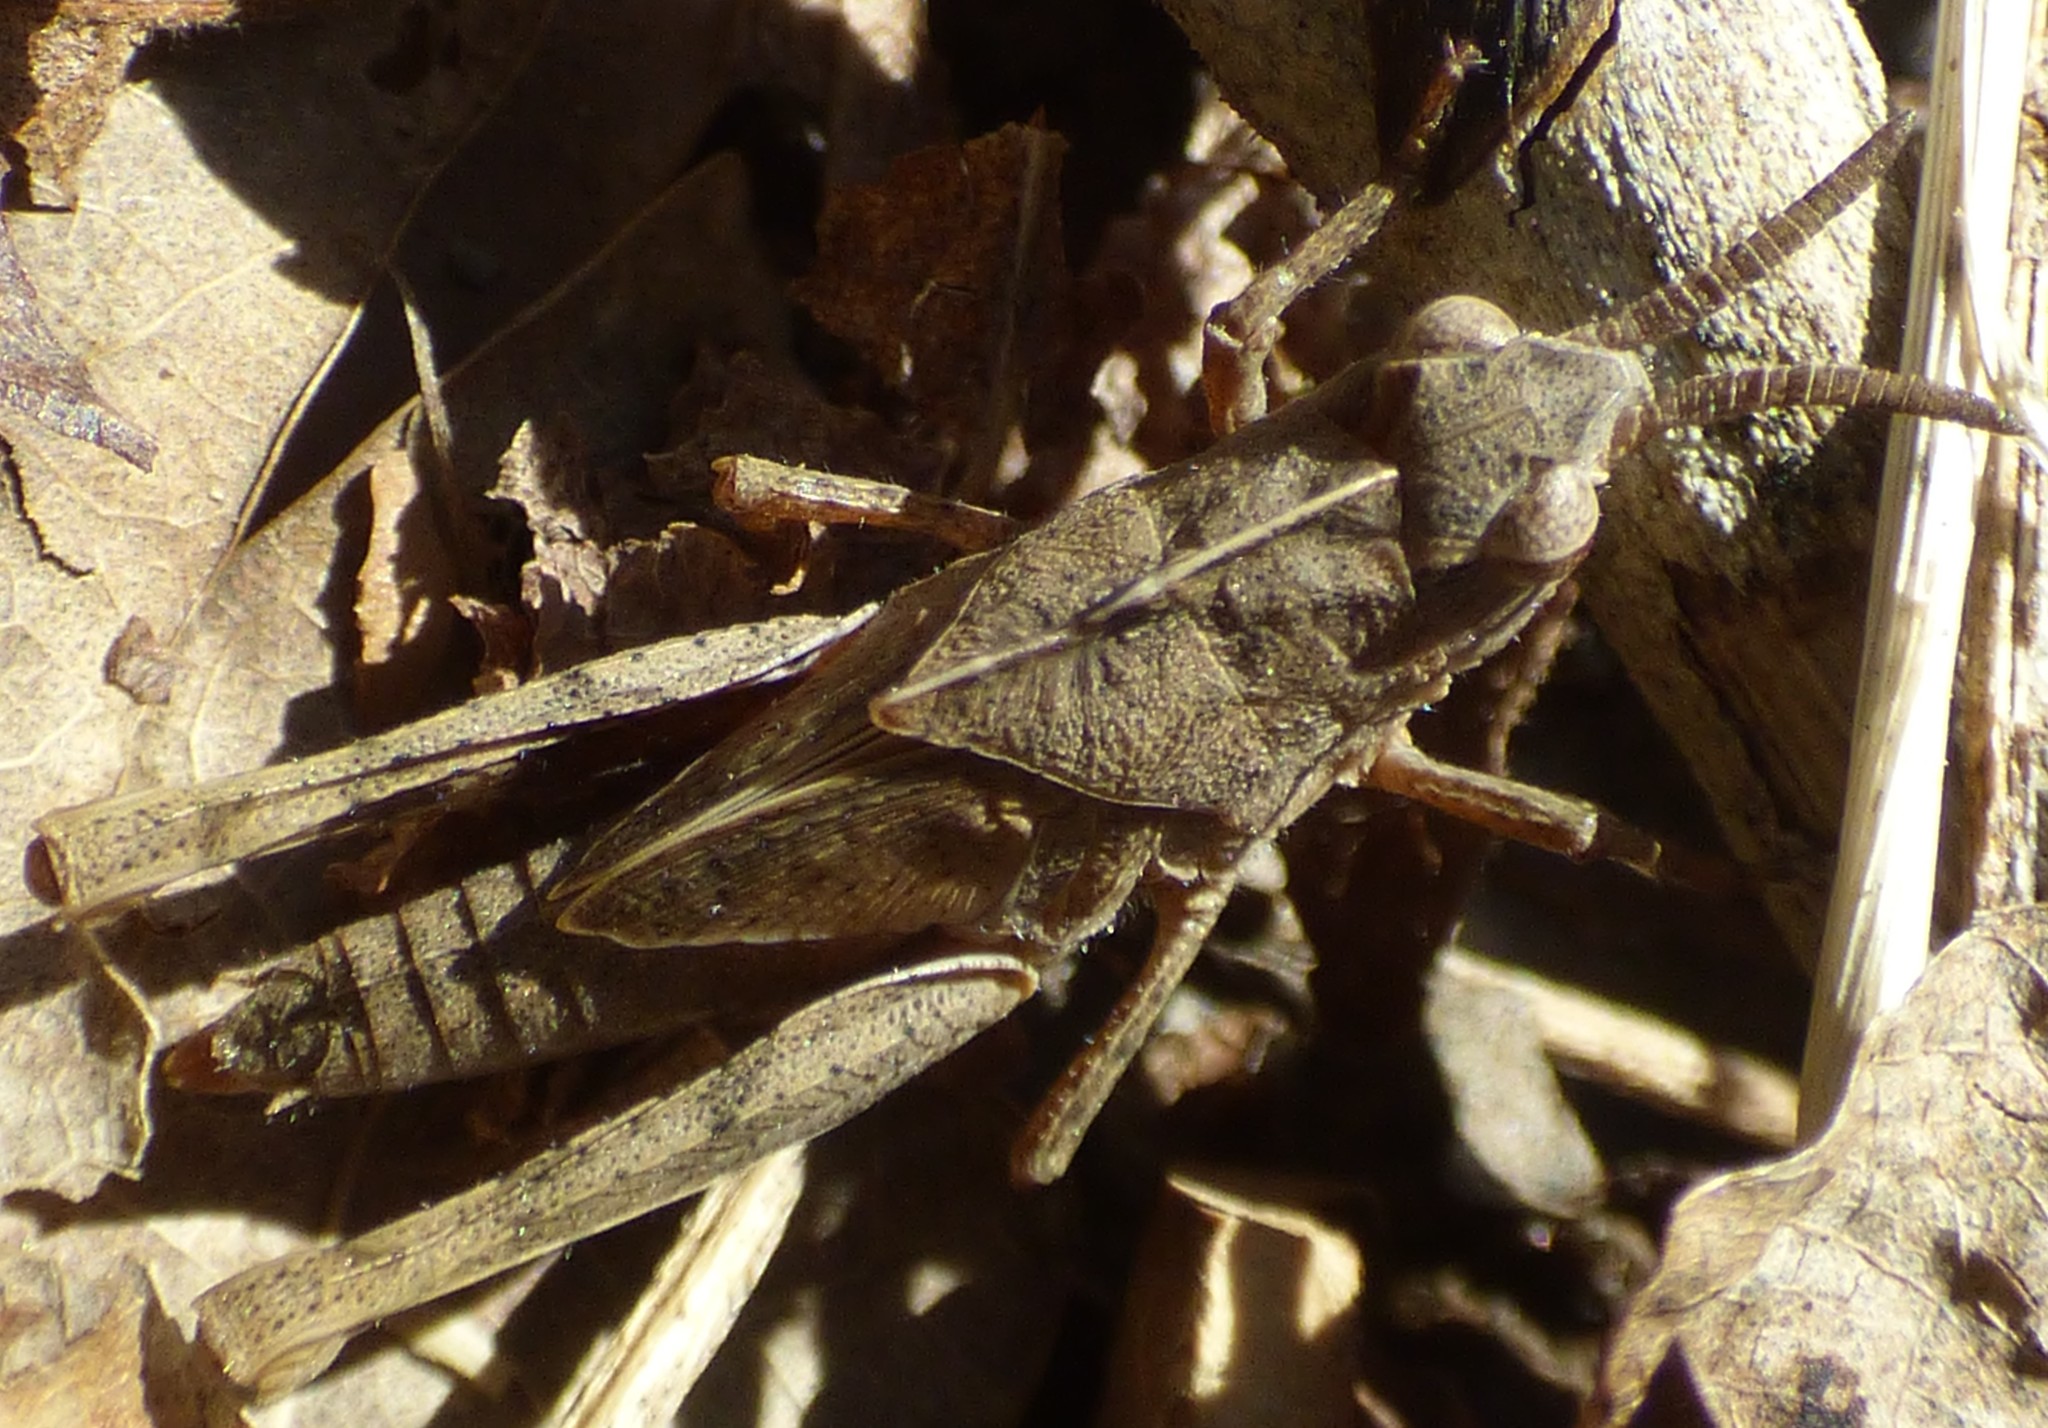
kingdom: Animalia
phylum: Arthropoda
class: Insecta
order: Orthoptera
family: Acrididae
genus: Chortophaga
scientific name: Chortophaga viridifasciata
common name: Green-striped grasshopper
